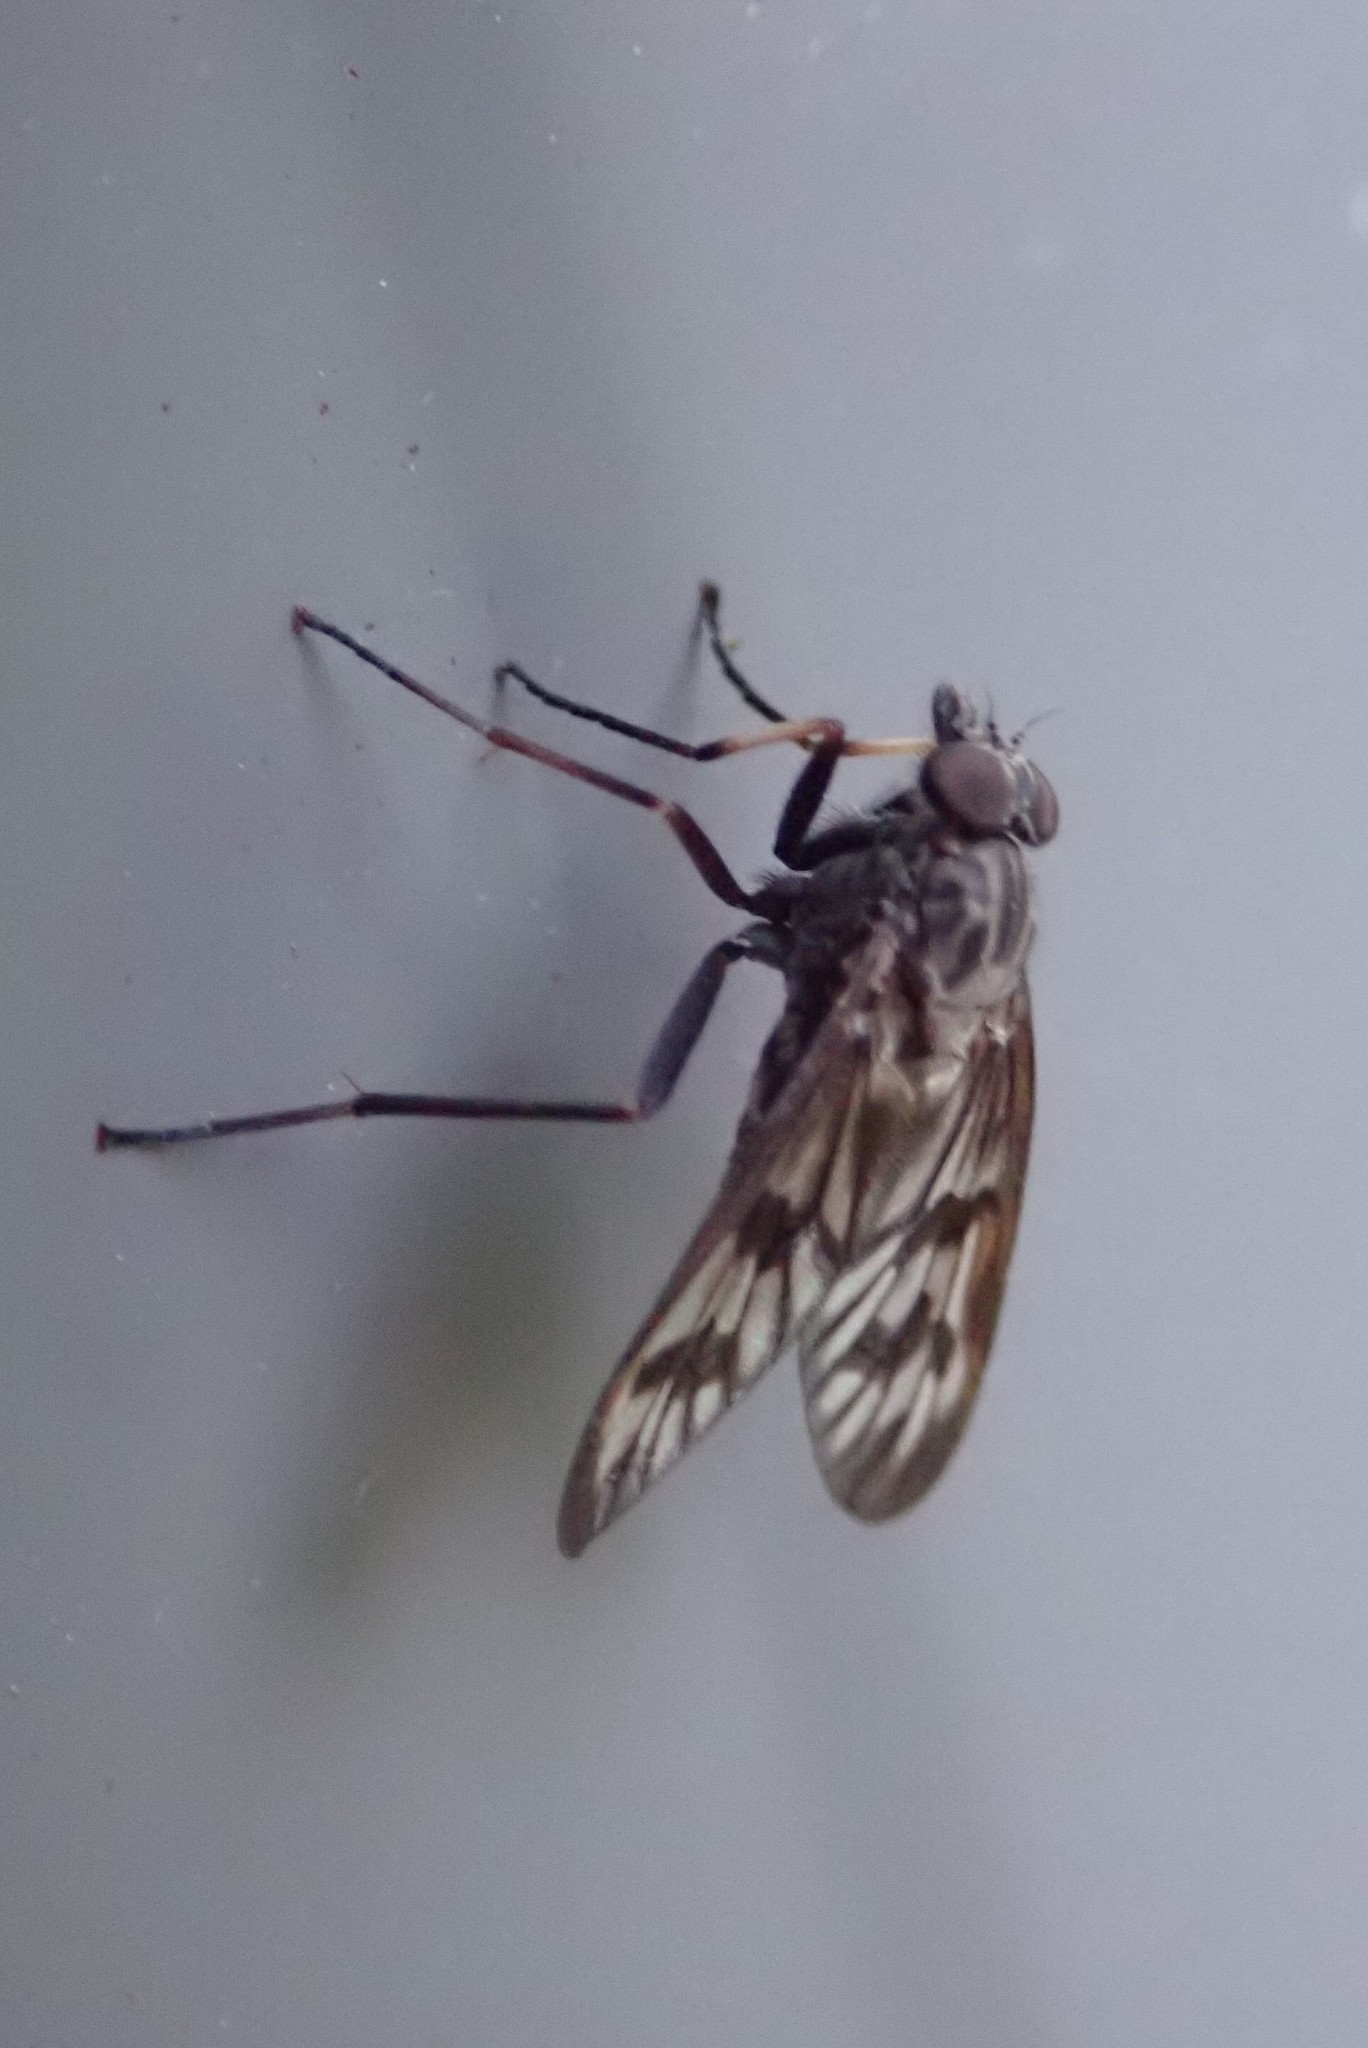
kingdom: Animalia
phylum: Arthropoda
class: Insecta
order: Diptera
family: Rhagionidae
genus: Rhagio
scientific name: Rhagio mystaceus
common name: Common snipe fly
